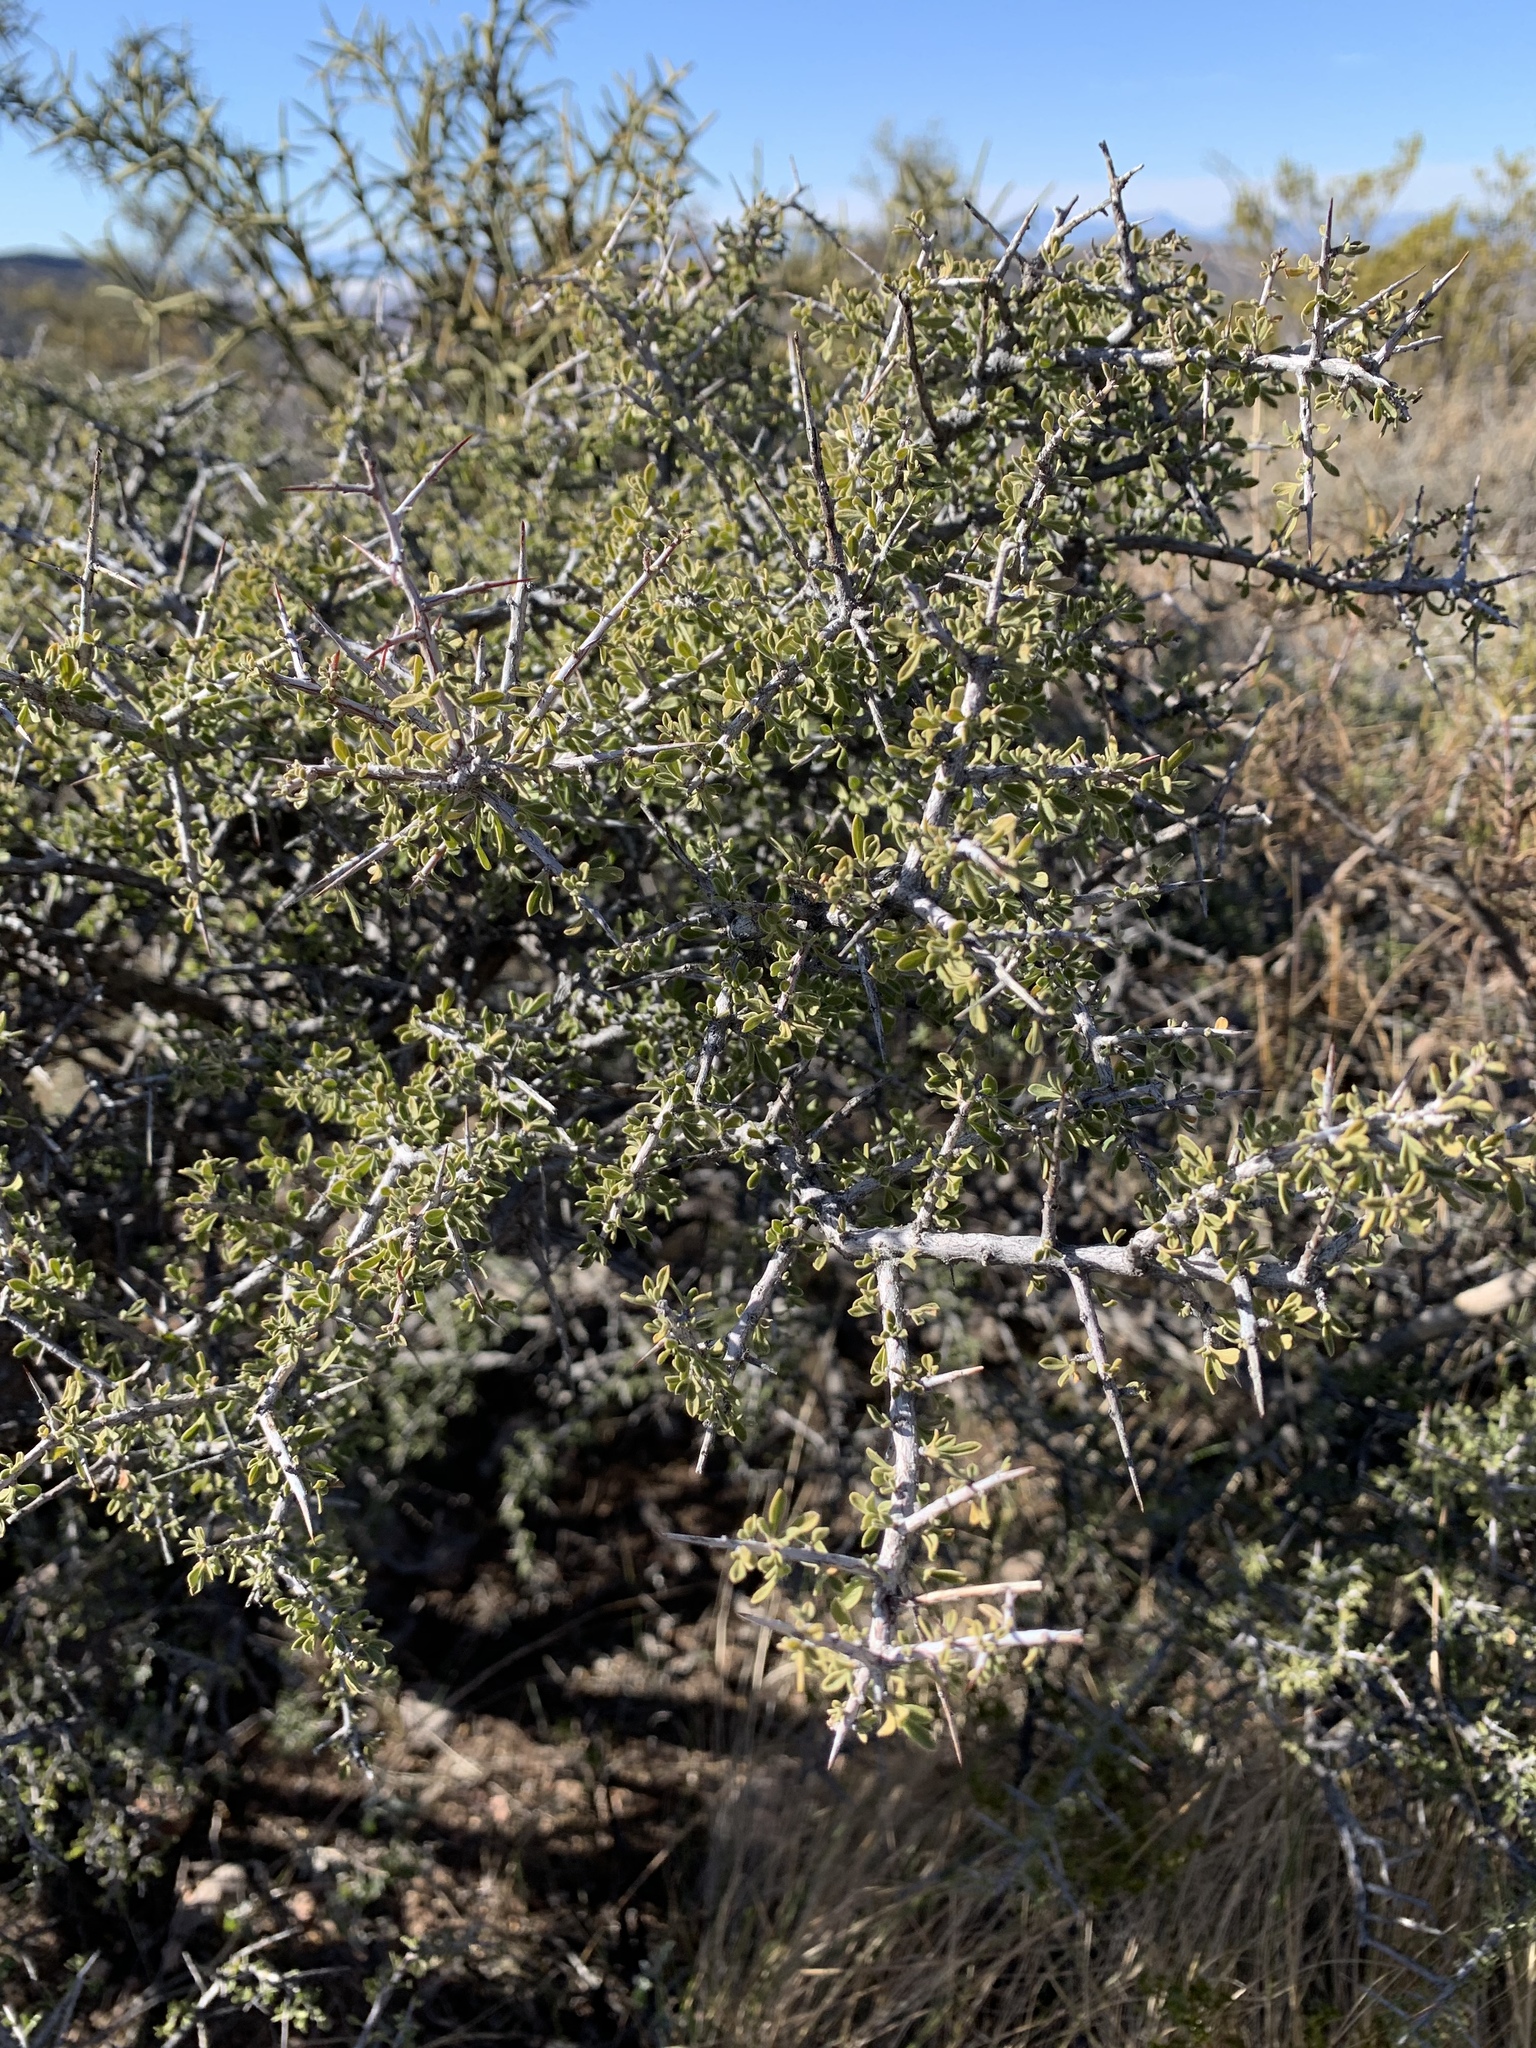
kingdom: Plantae
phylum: Tracheophyta
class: Magnoliopsida
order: Rosales
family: Rhamnaceae
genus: Condalia
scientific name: Condalia warnockii
